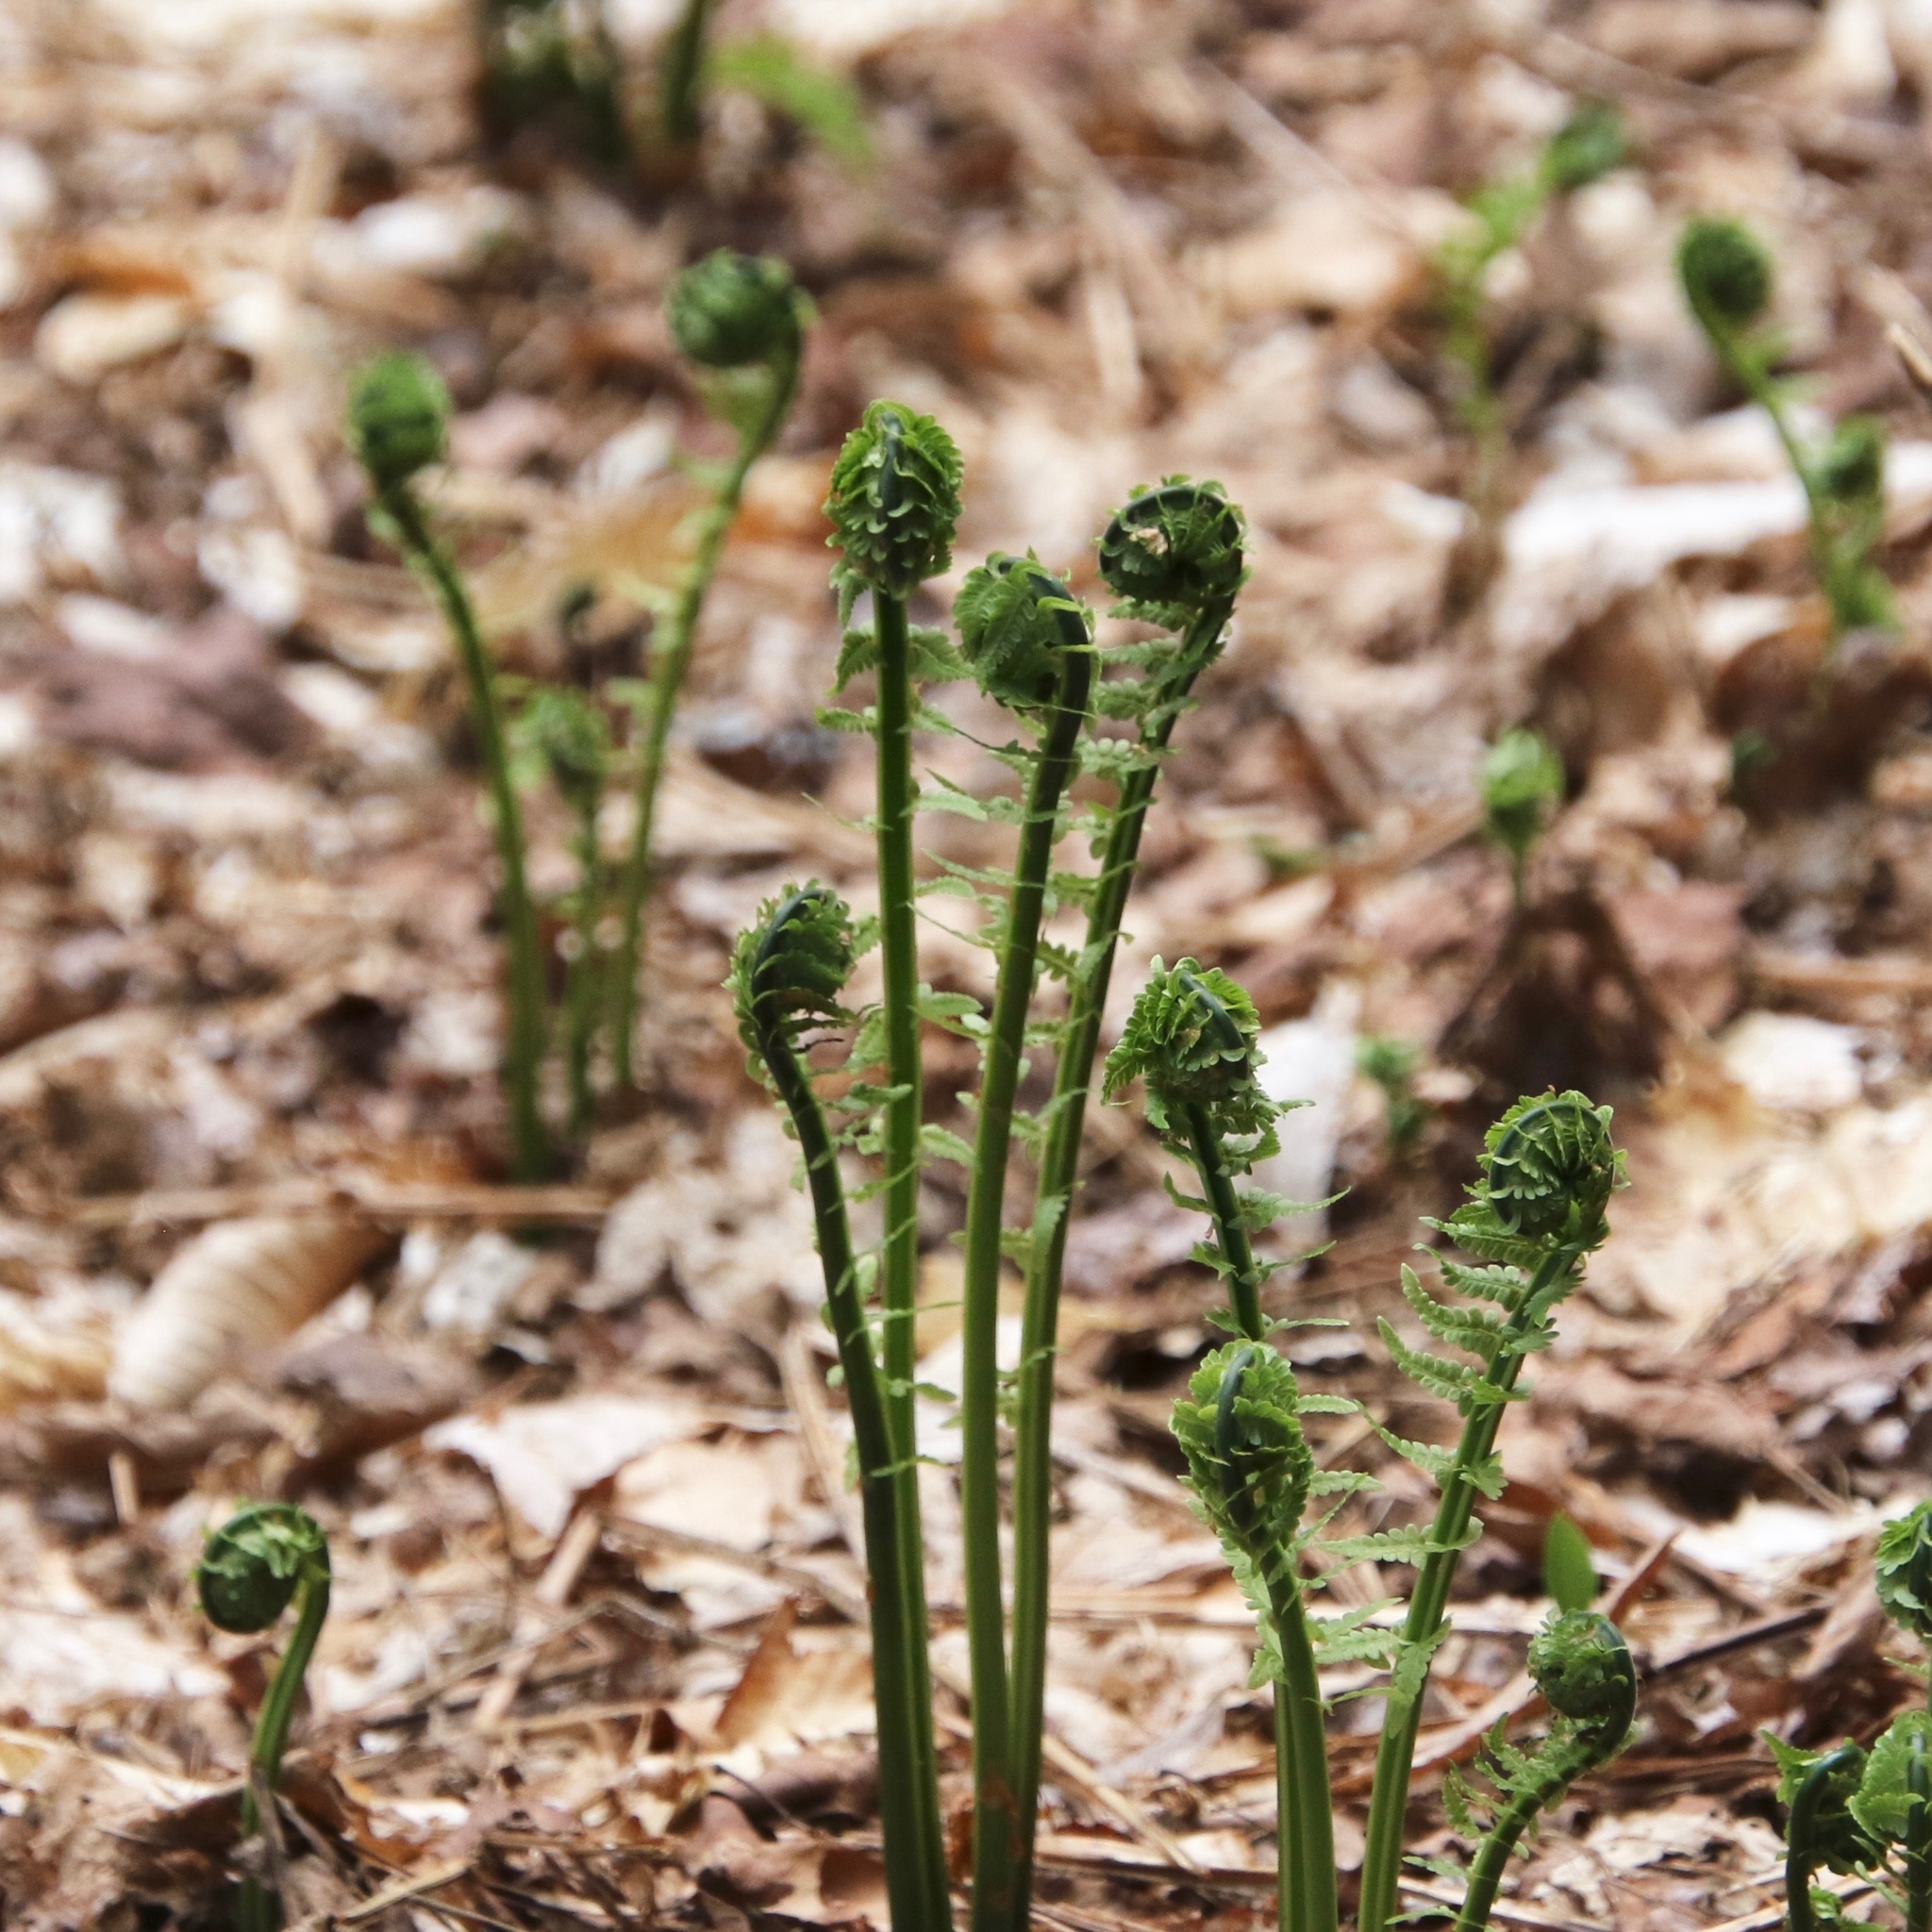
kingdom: Plantae
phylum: Tracheophyta
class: Polypodiopsida
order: Polypodiales
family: Onocleaceae
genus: Matteuccia
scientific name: Matteuccia struthiopteris
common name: Ostrich fern
